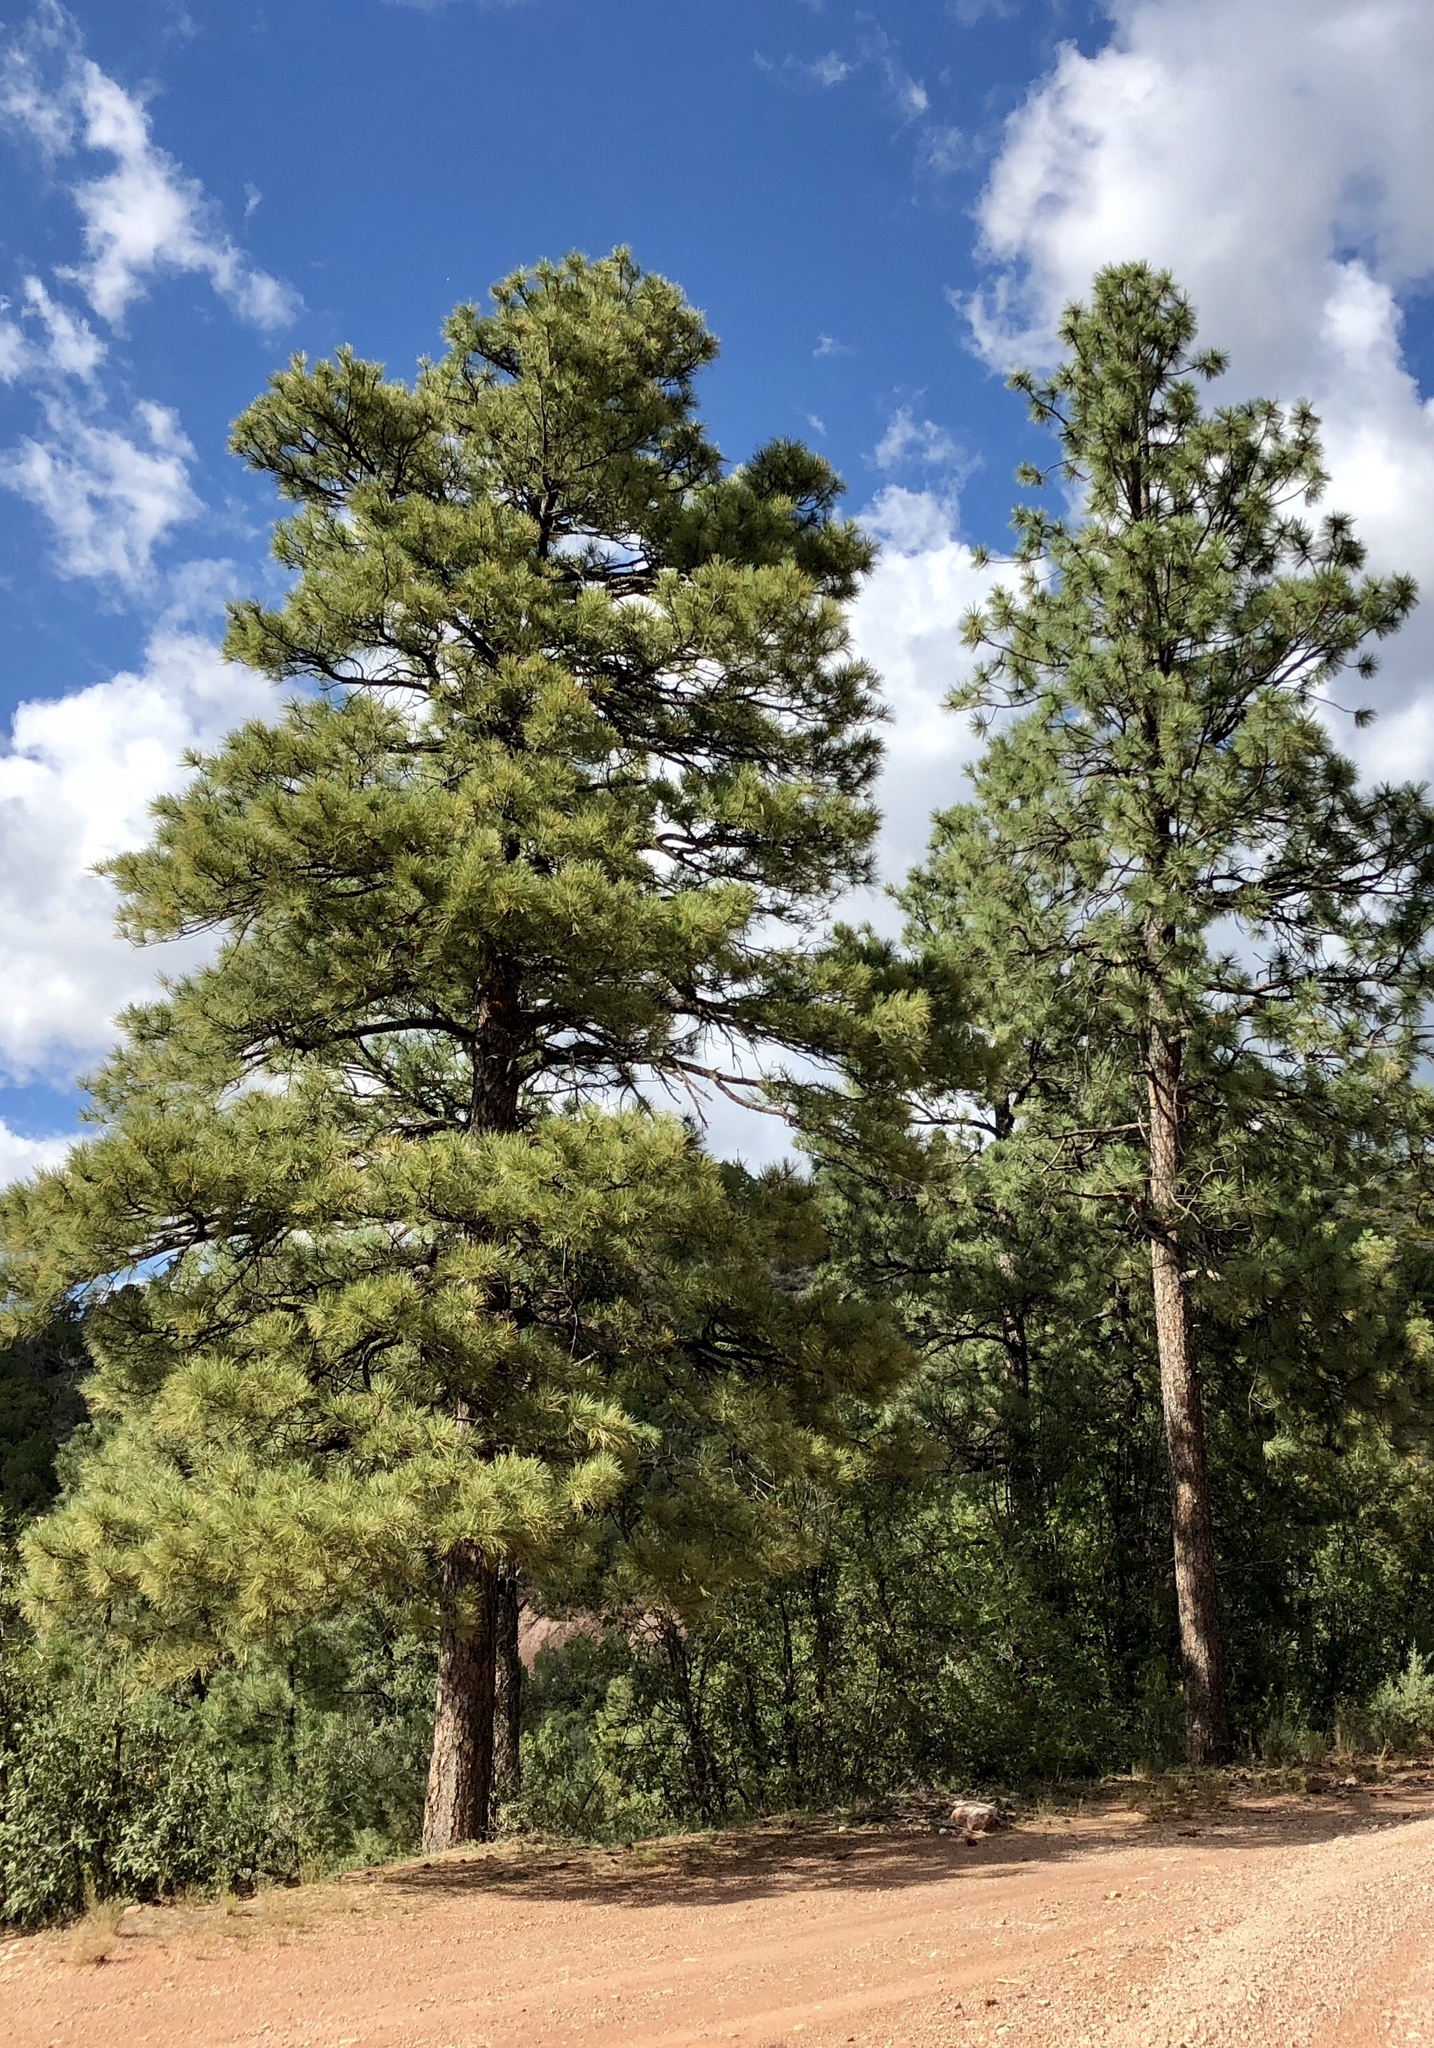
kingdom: Plantae
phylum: Tracheophyta
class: Pinopsida
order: Pinales
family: Pinaceae
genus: Pinus
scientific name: Pinus ponderosa
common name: Western yellow-pine
